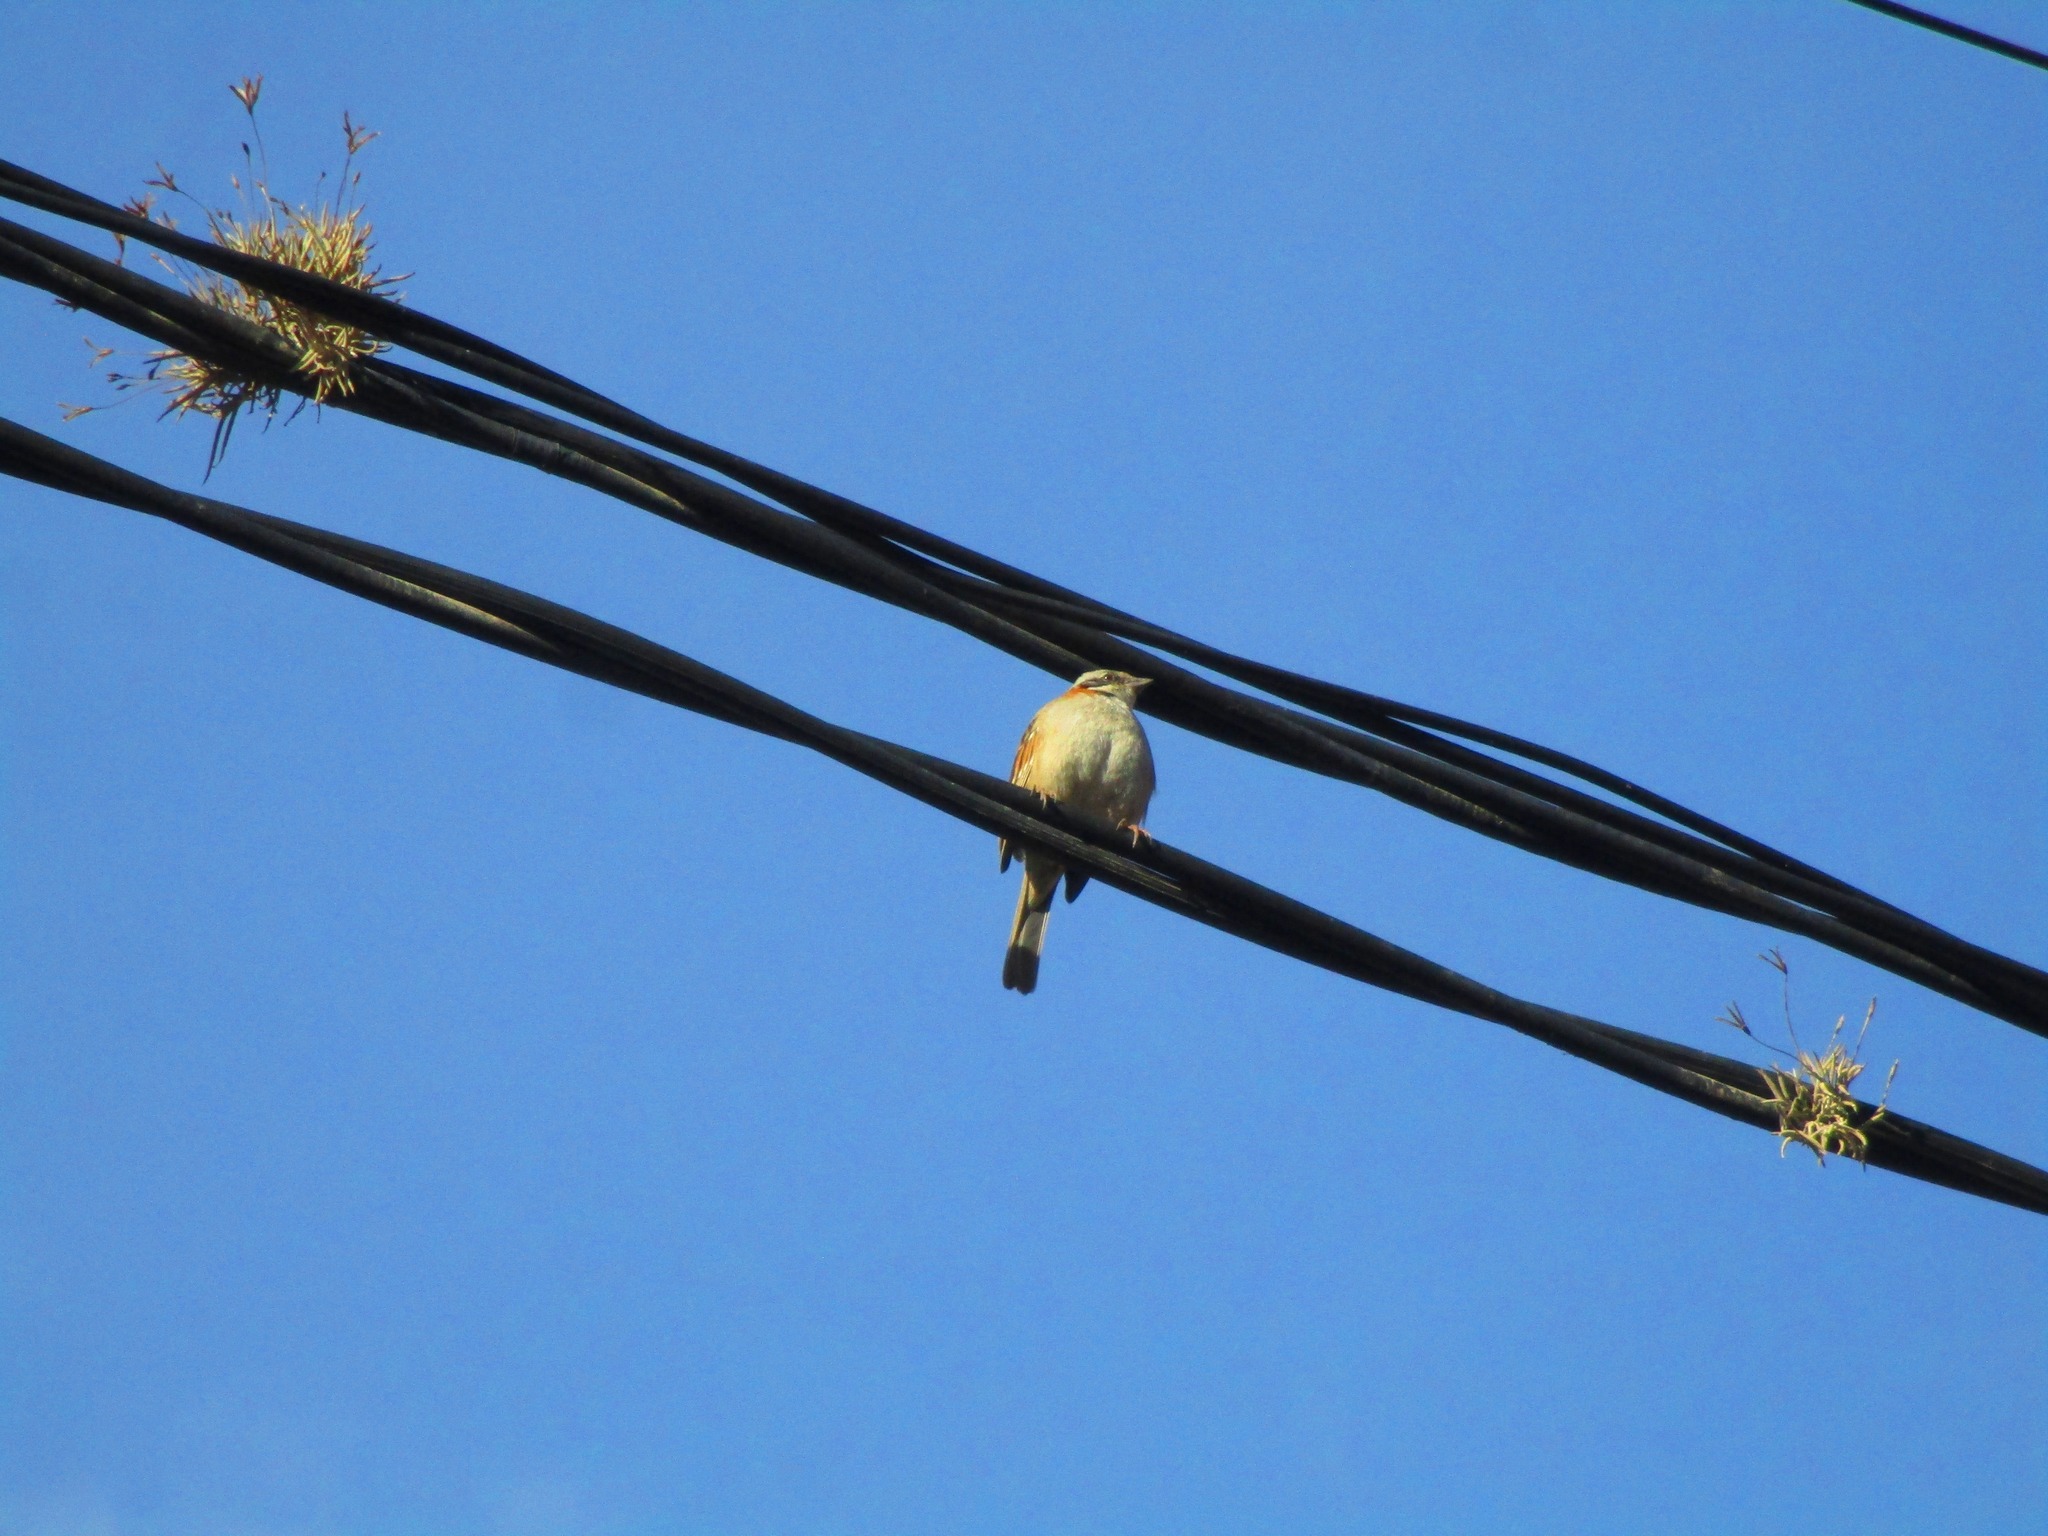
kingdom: Animalia
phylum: Chordata
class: Aves
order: Passeriformes
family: Passerellidae
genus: Zonotrichia
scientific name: Zonotrichia capensis
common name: Rufous-collared sparrow
